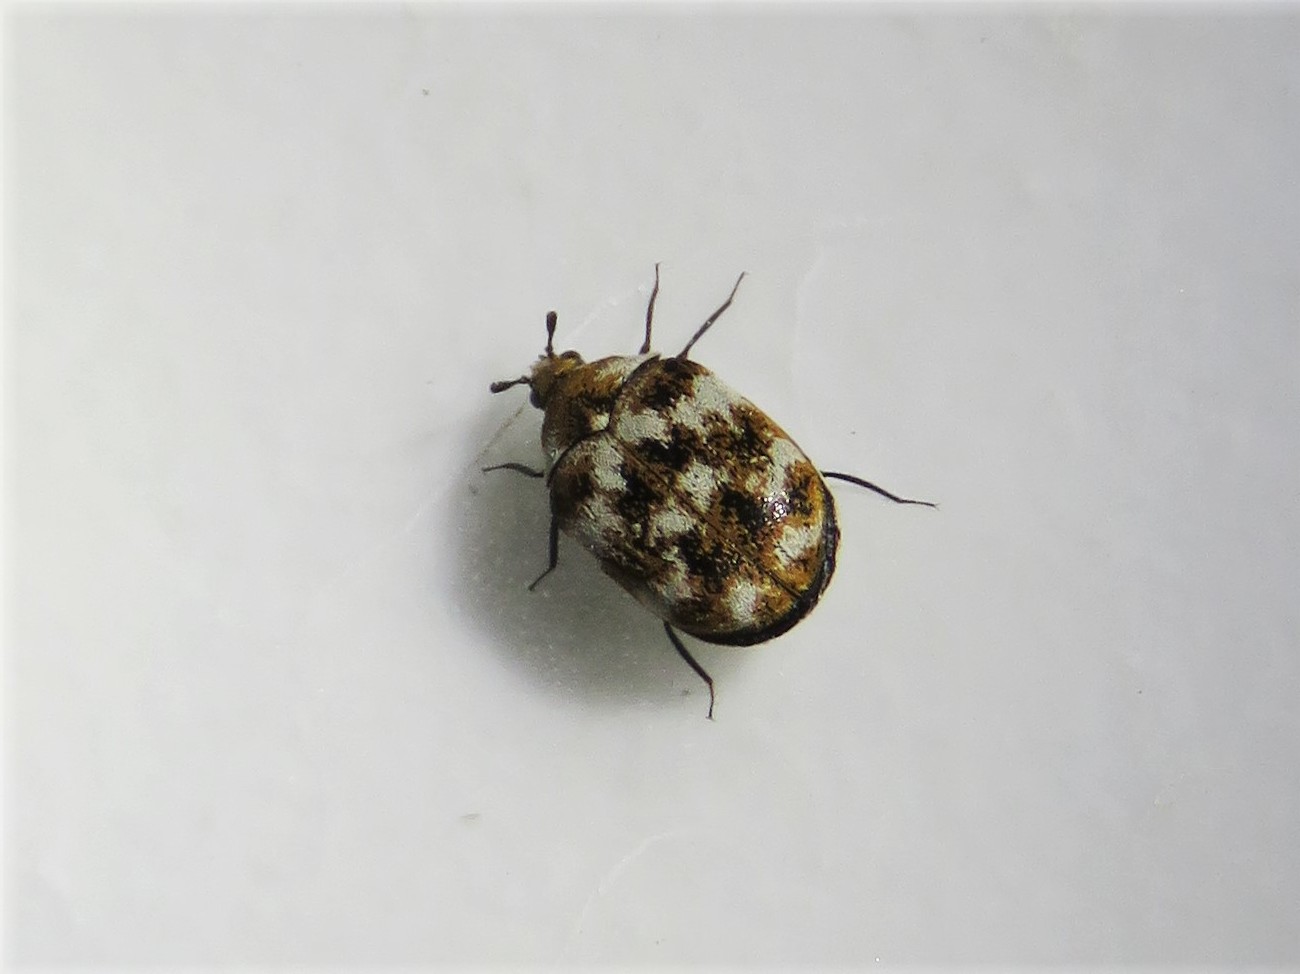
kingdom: Animalia
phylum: Arthropoda
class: Insecta
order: Coleoptera
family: Dermestidae
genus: Anthrenus
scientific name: Anthrenus verbasci
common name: Varied carpet beetle
